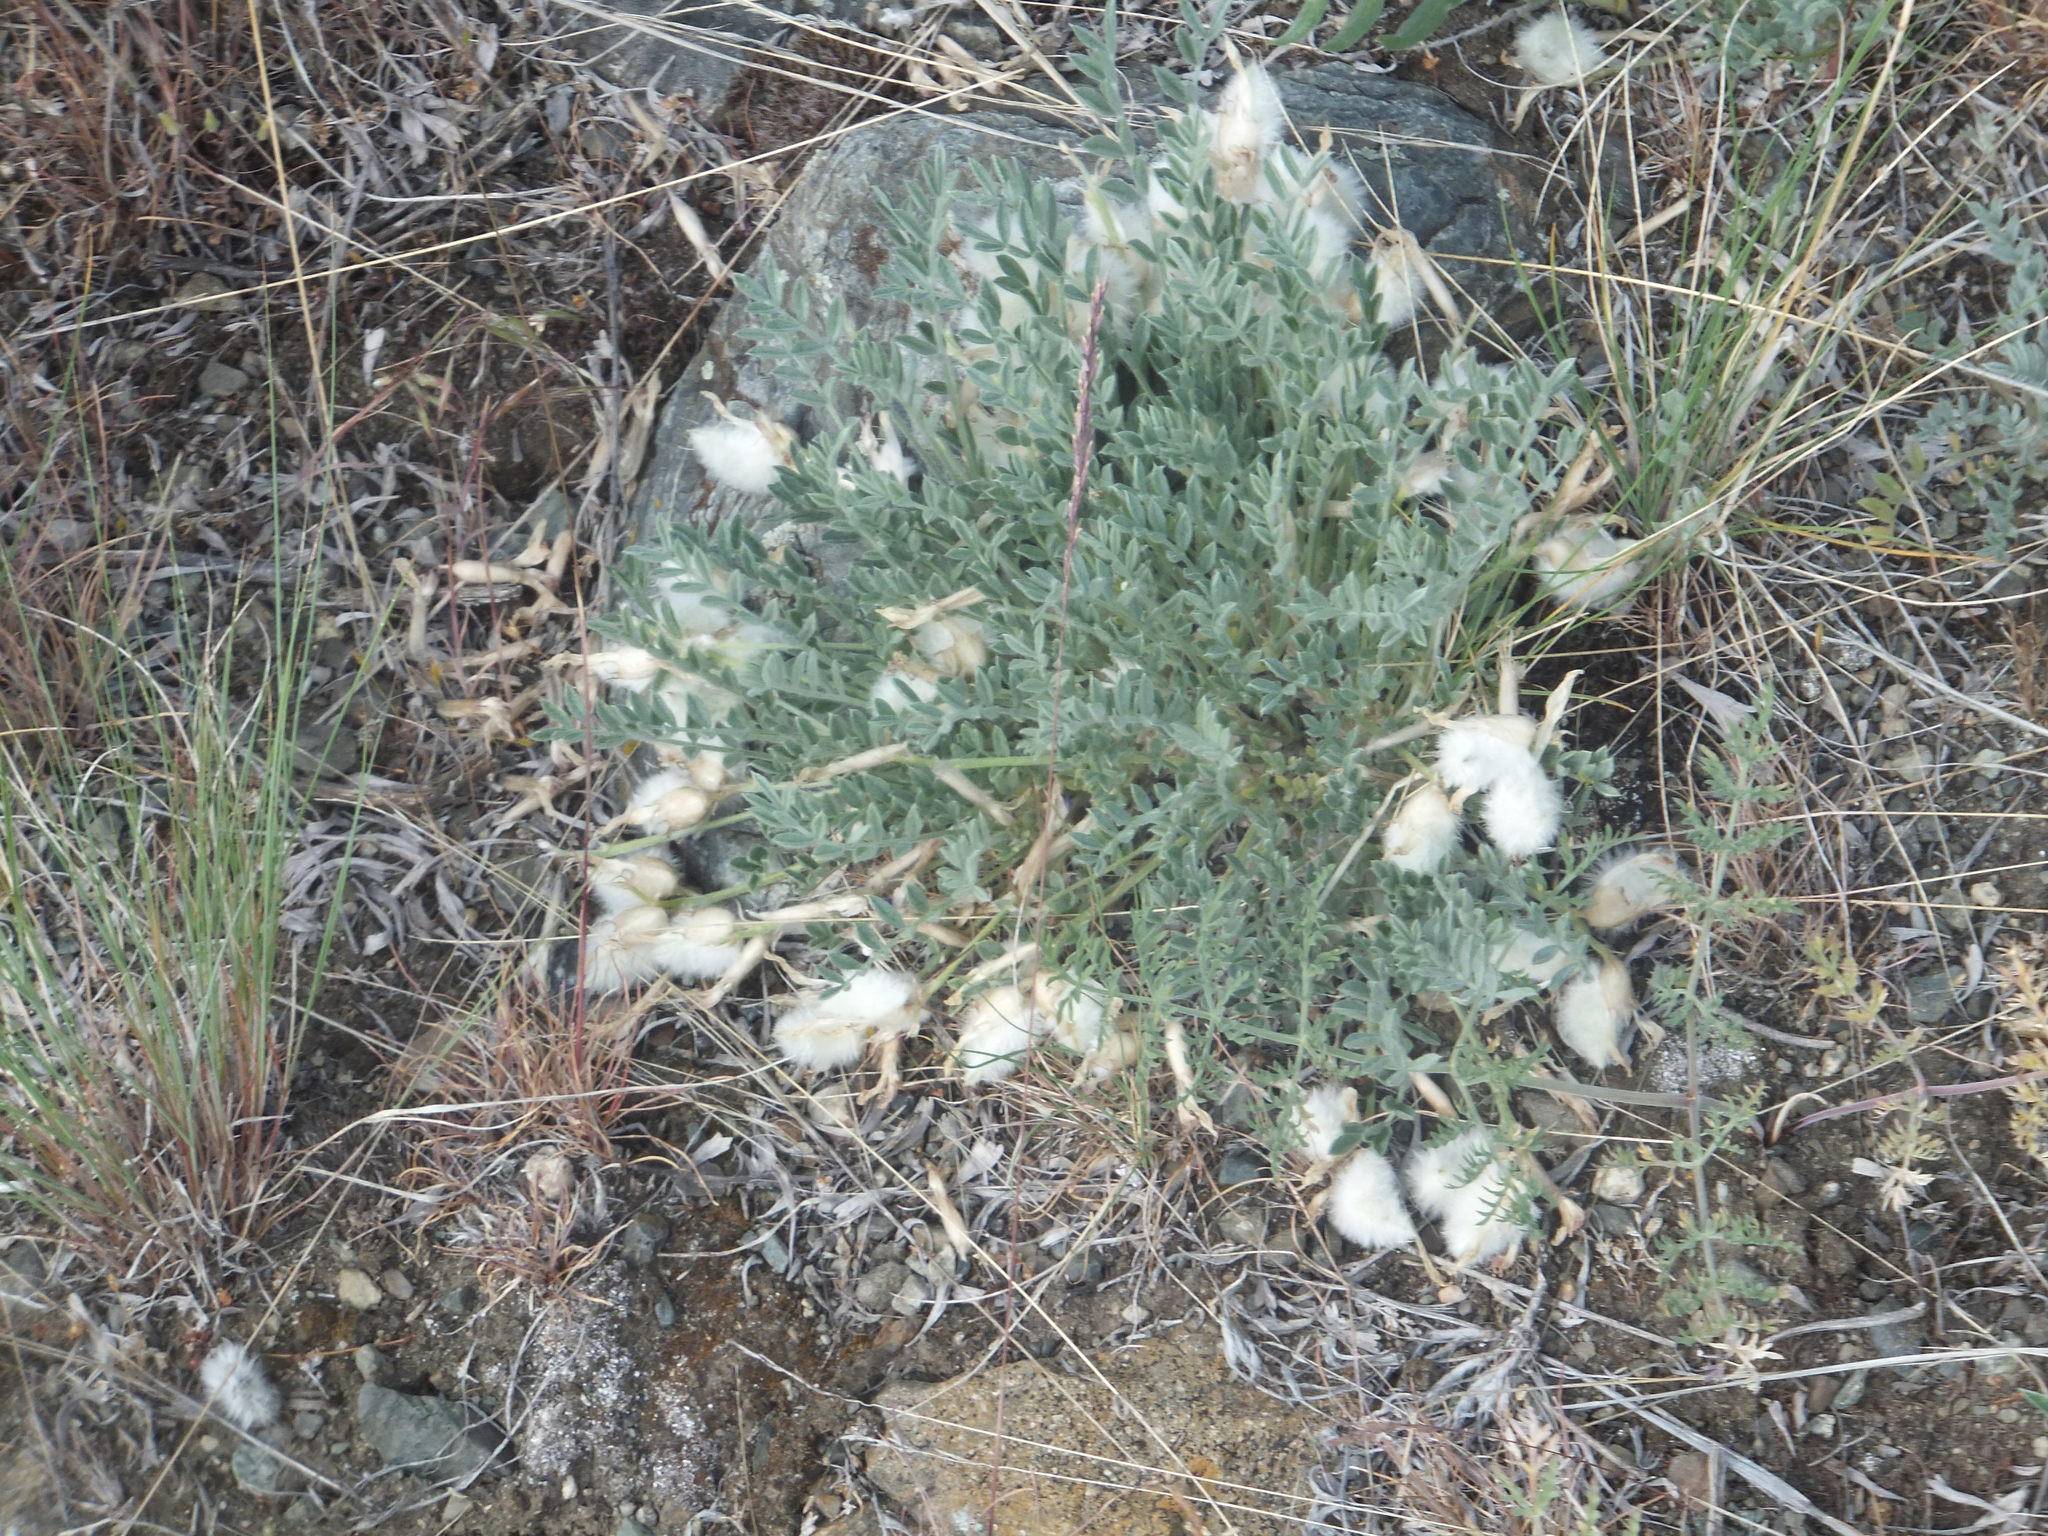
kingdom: Plantae
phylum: Tracheophyta
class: Magnoliopsida
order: Fabales
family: Fabaceae
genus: Astragalus
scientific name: Astragalus purshii
